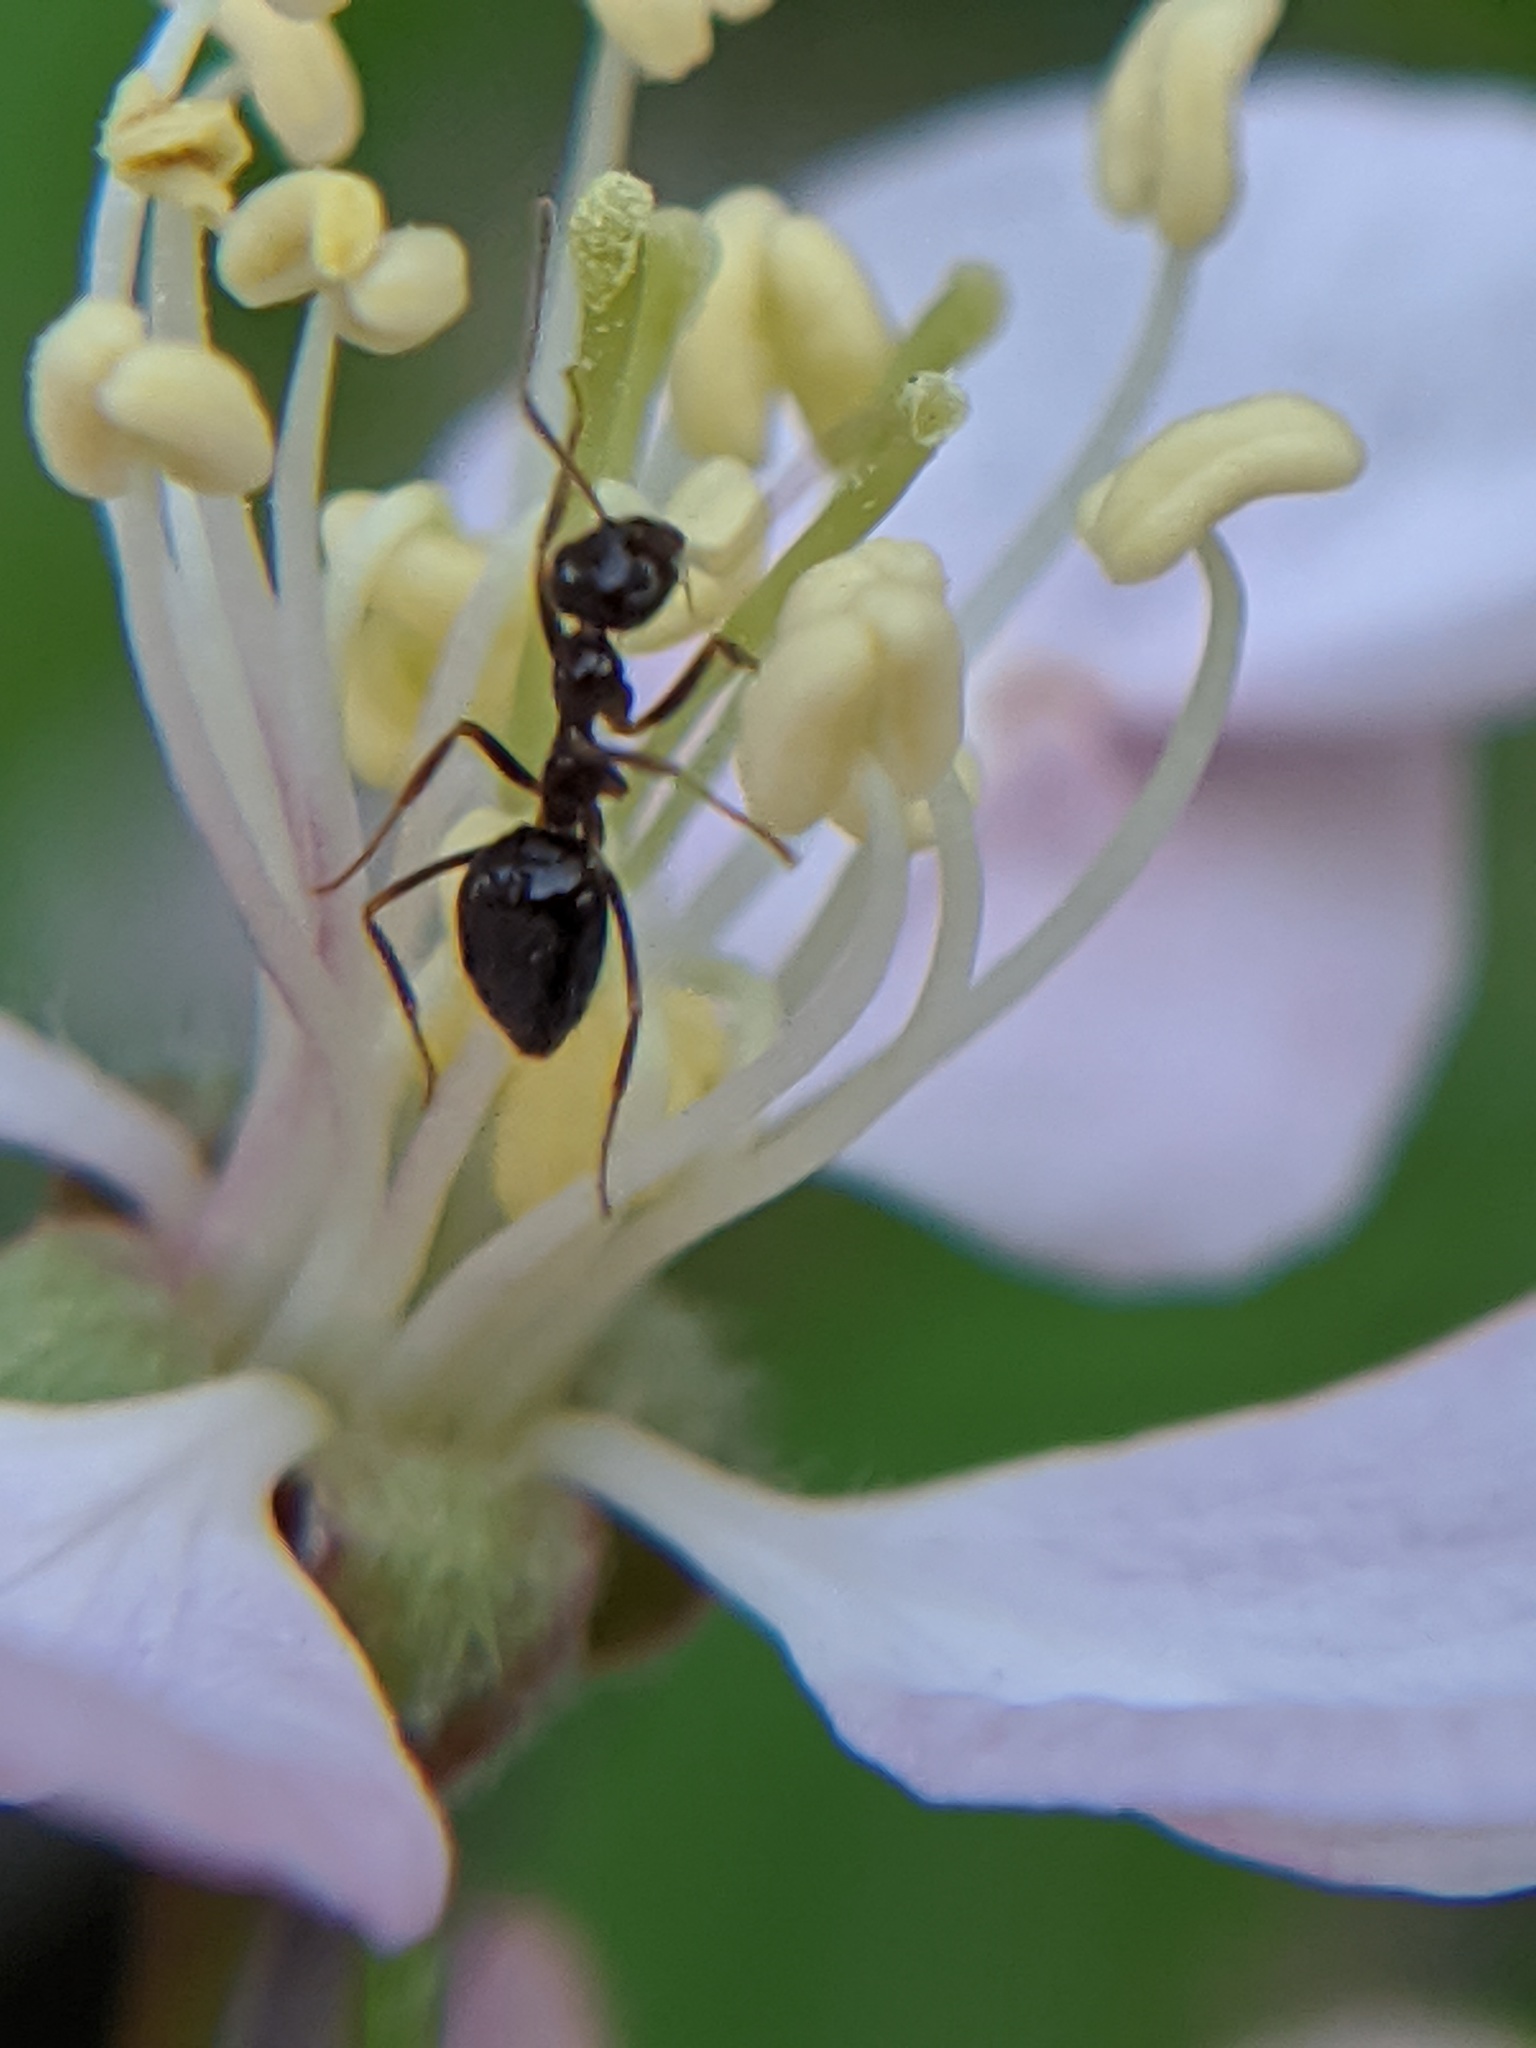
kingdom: Animalia
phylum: Arthropoda
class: Insecta
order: Hymenoptera
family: Formicidae
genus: Prenolepis
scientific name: Prenolepis imparis
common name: Small honey ant
